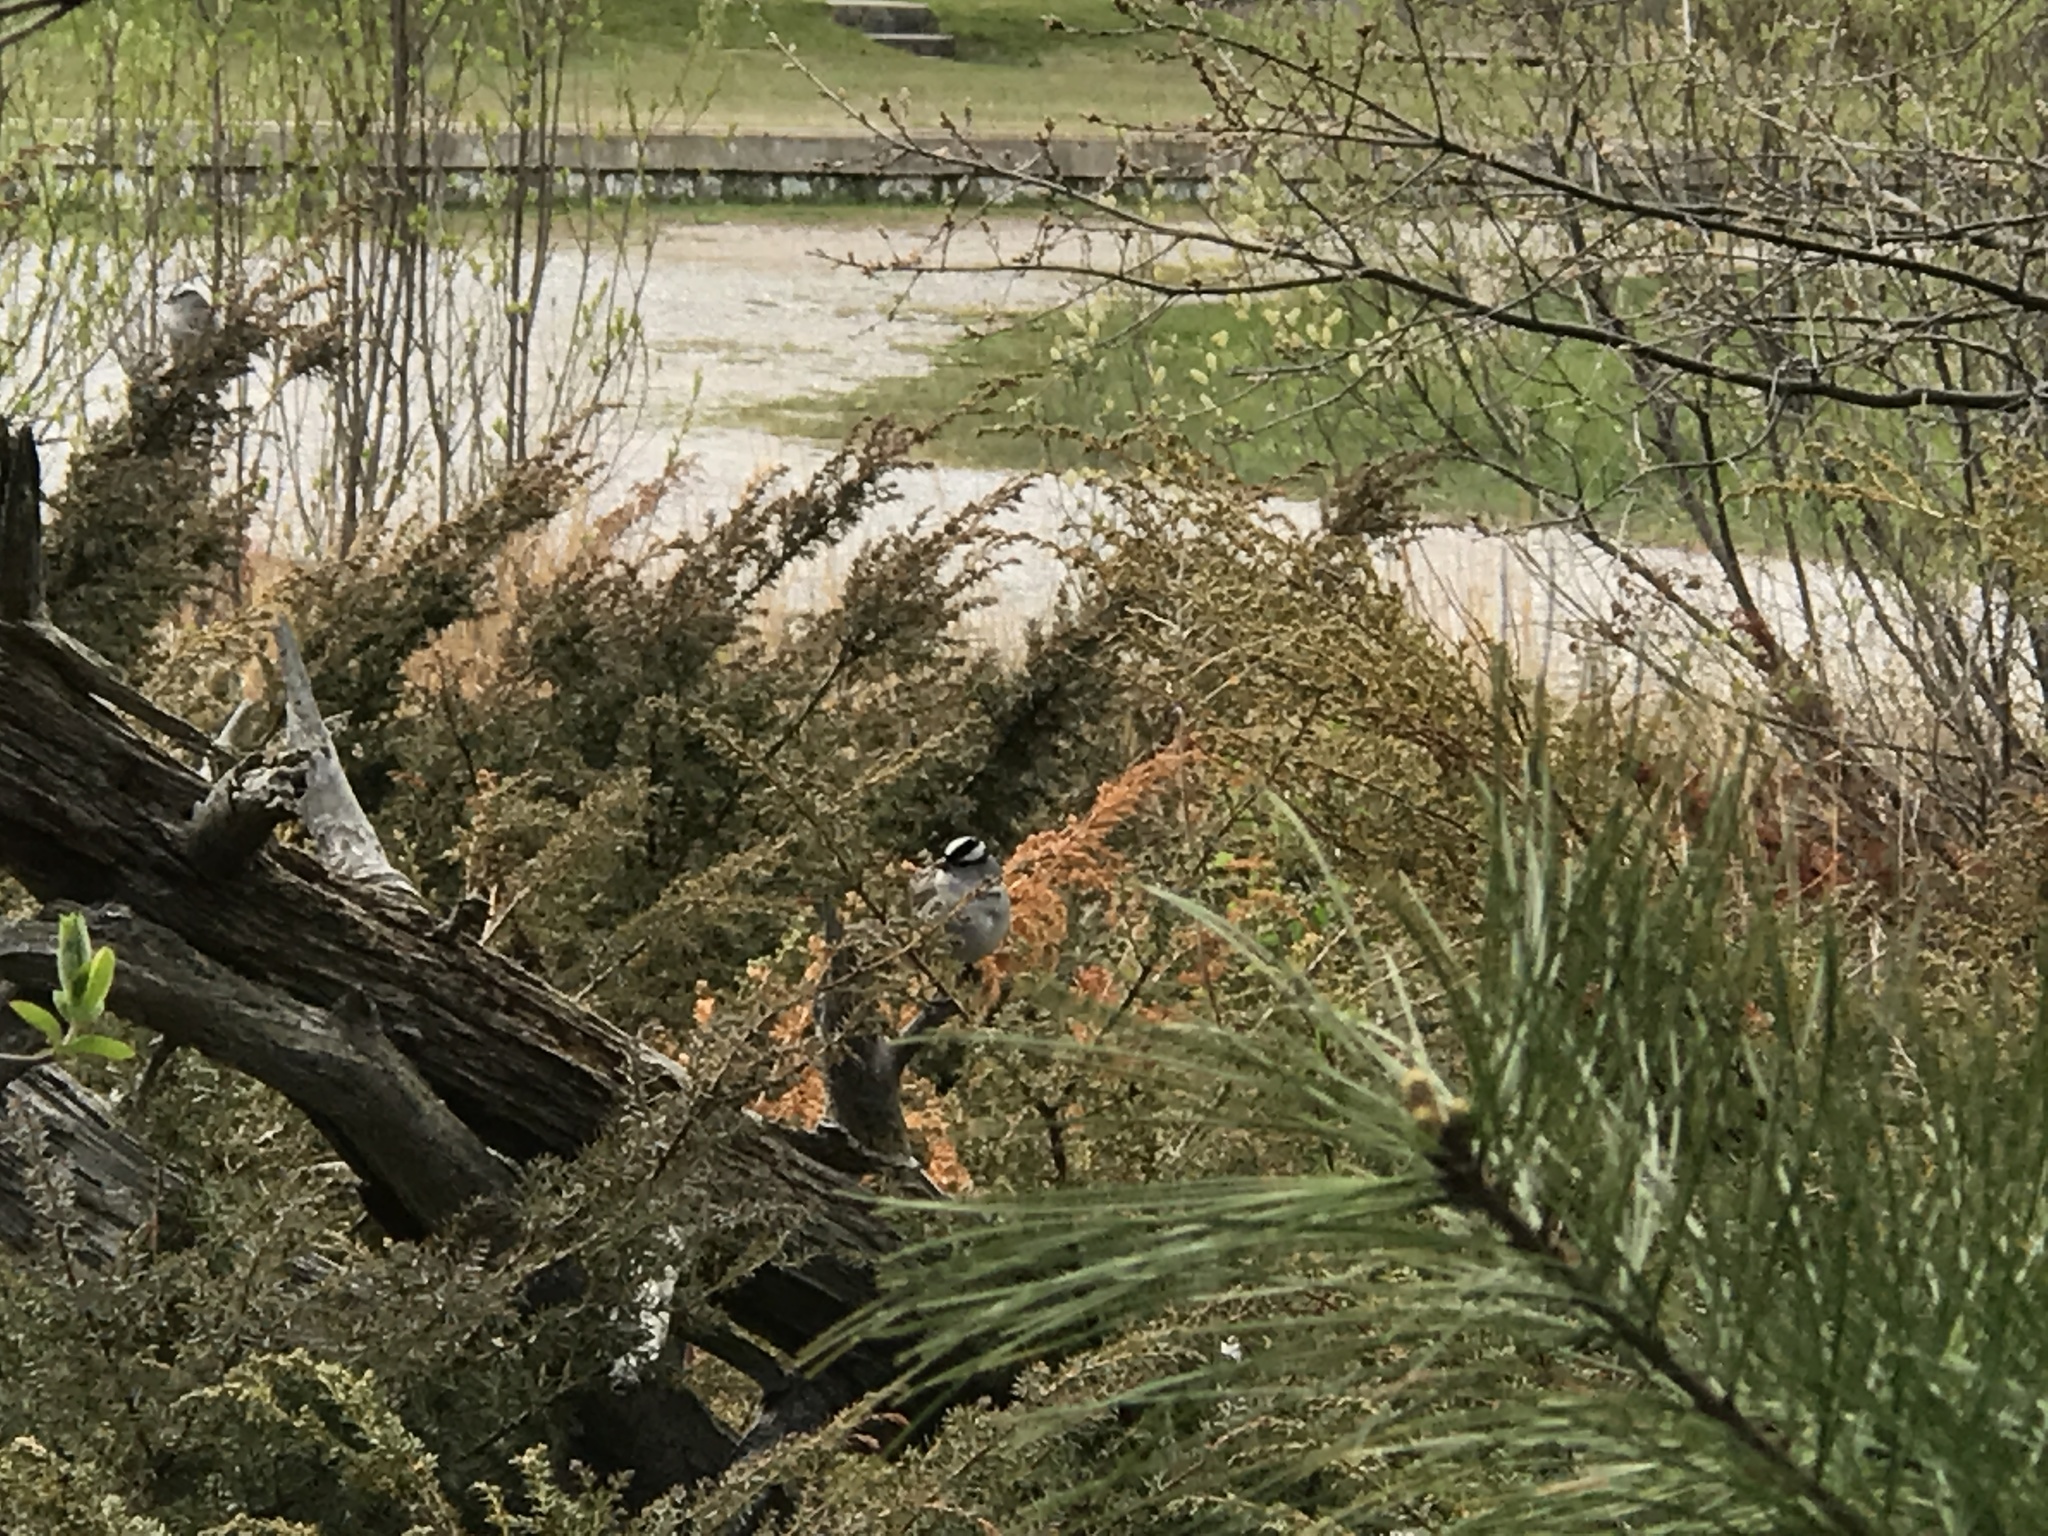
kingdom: Animalia
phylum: Chordata
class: Aves
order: Passeriformes
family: Passerellidae
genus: Zonotrichia
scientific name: Zonotrichia leucophrys
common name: White-crowned sparrow
